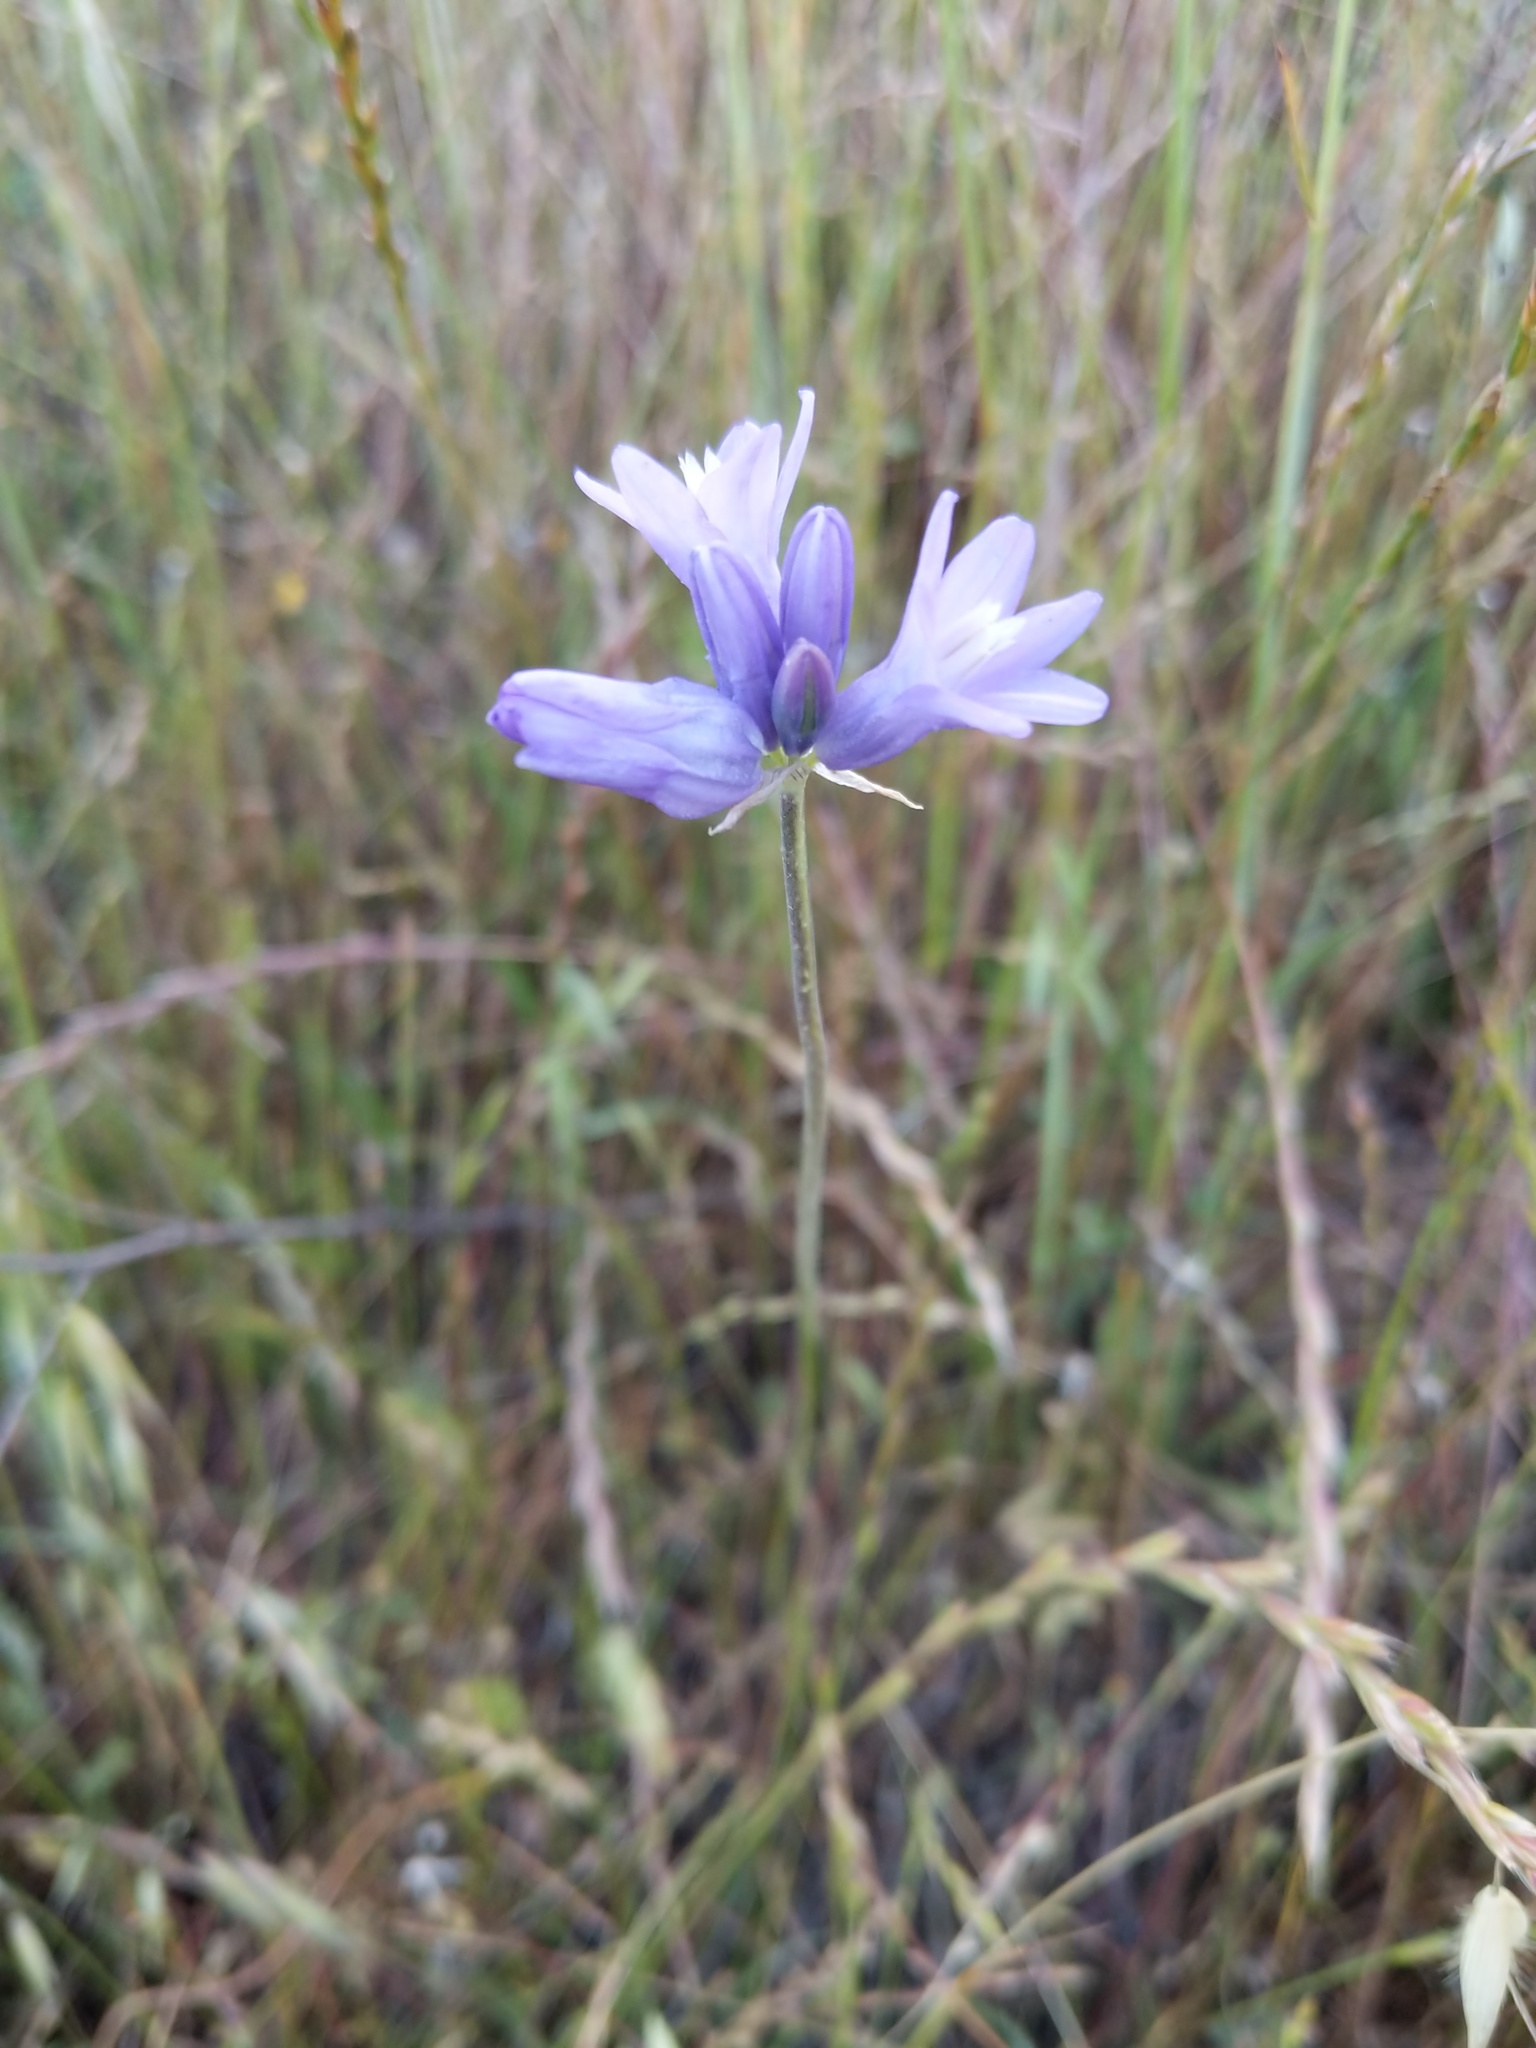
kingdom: Plantae
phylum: Tracheophyta
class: Liliopsida
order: Asparagales
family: Asparagaceae
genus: Dipterostemon
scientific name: Dipterostemon capitatus
